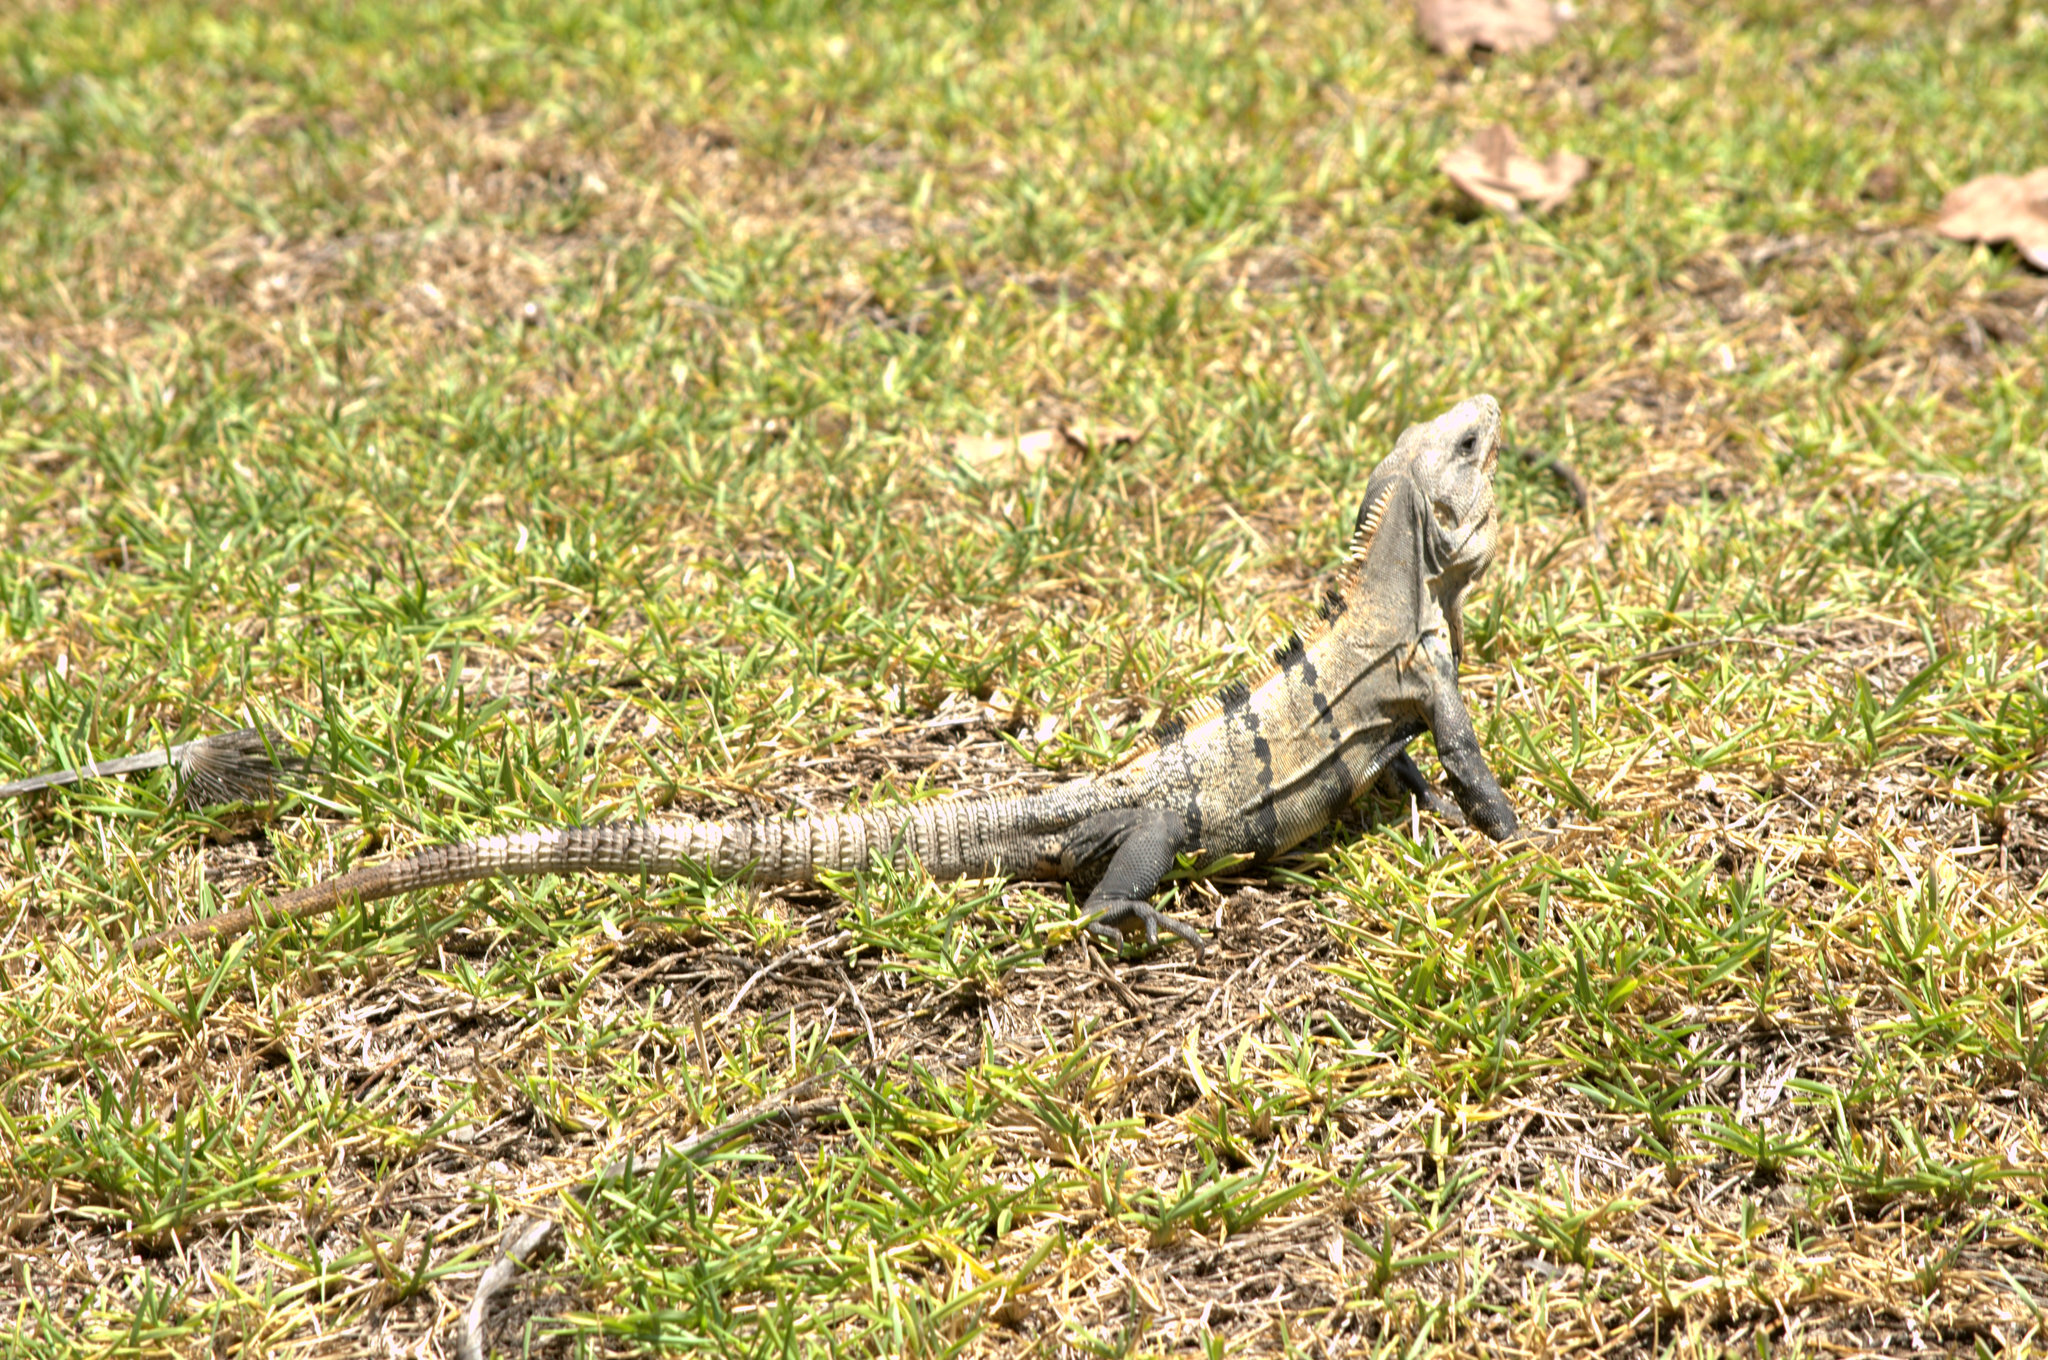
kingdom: Animalia
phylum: Chordata
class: Squamata
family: Iguanidae
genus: Ctenosaura
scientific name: Ctenosaura similis
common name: Black spiny-tailed iguana
